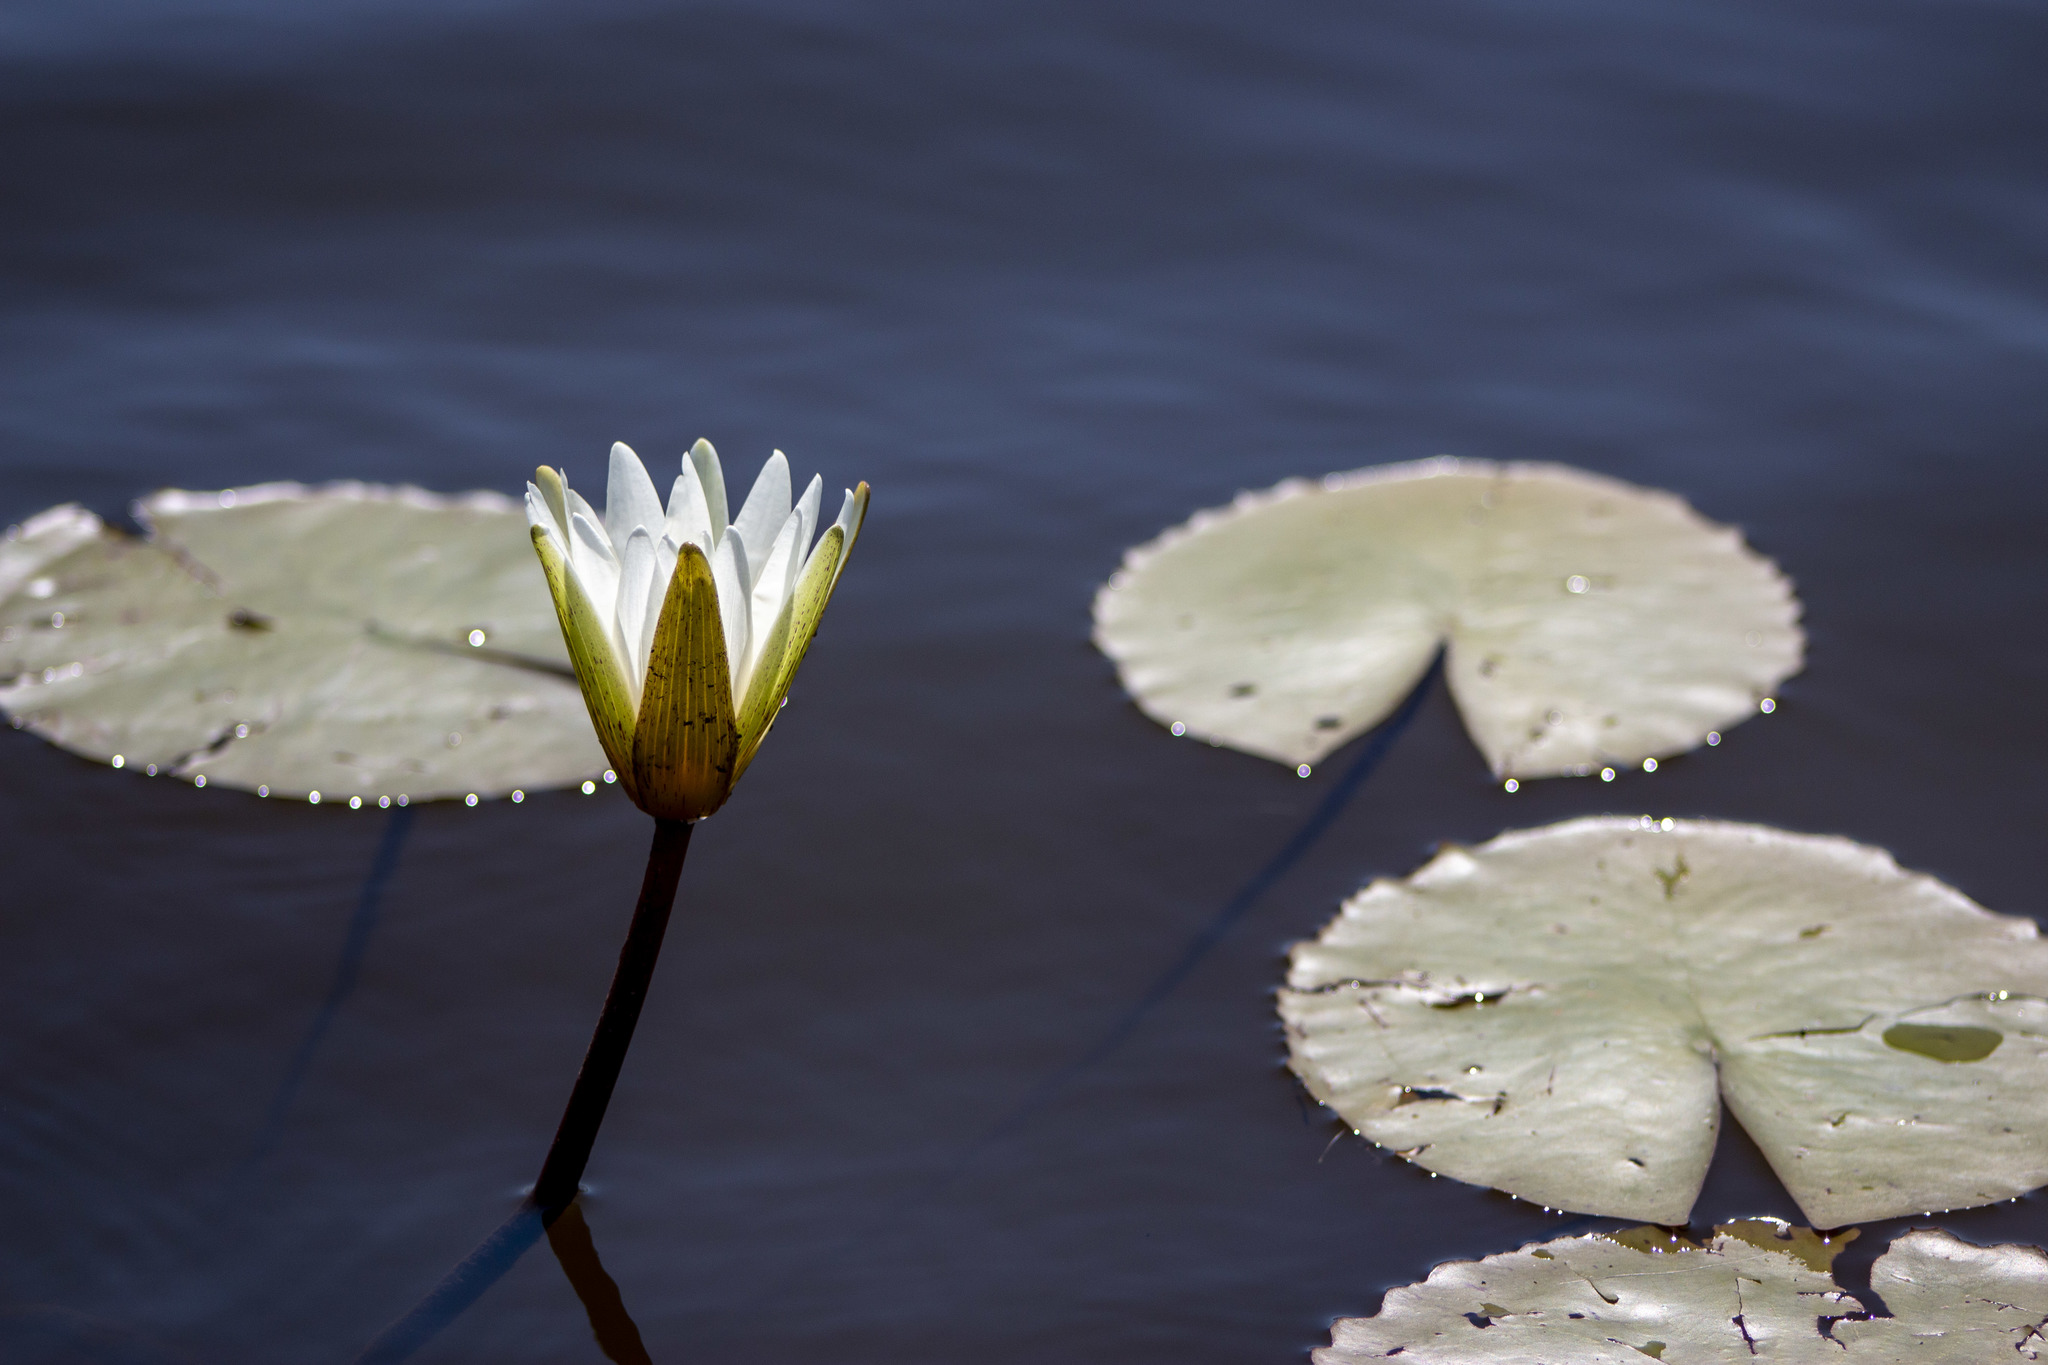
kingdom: Plantae
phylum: Tracheophyta
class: Magnoliopsida
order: Nymphaeales
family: Nymphaeaceae
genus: Nymphaea
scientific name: Nymphaea pulchella
